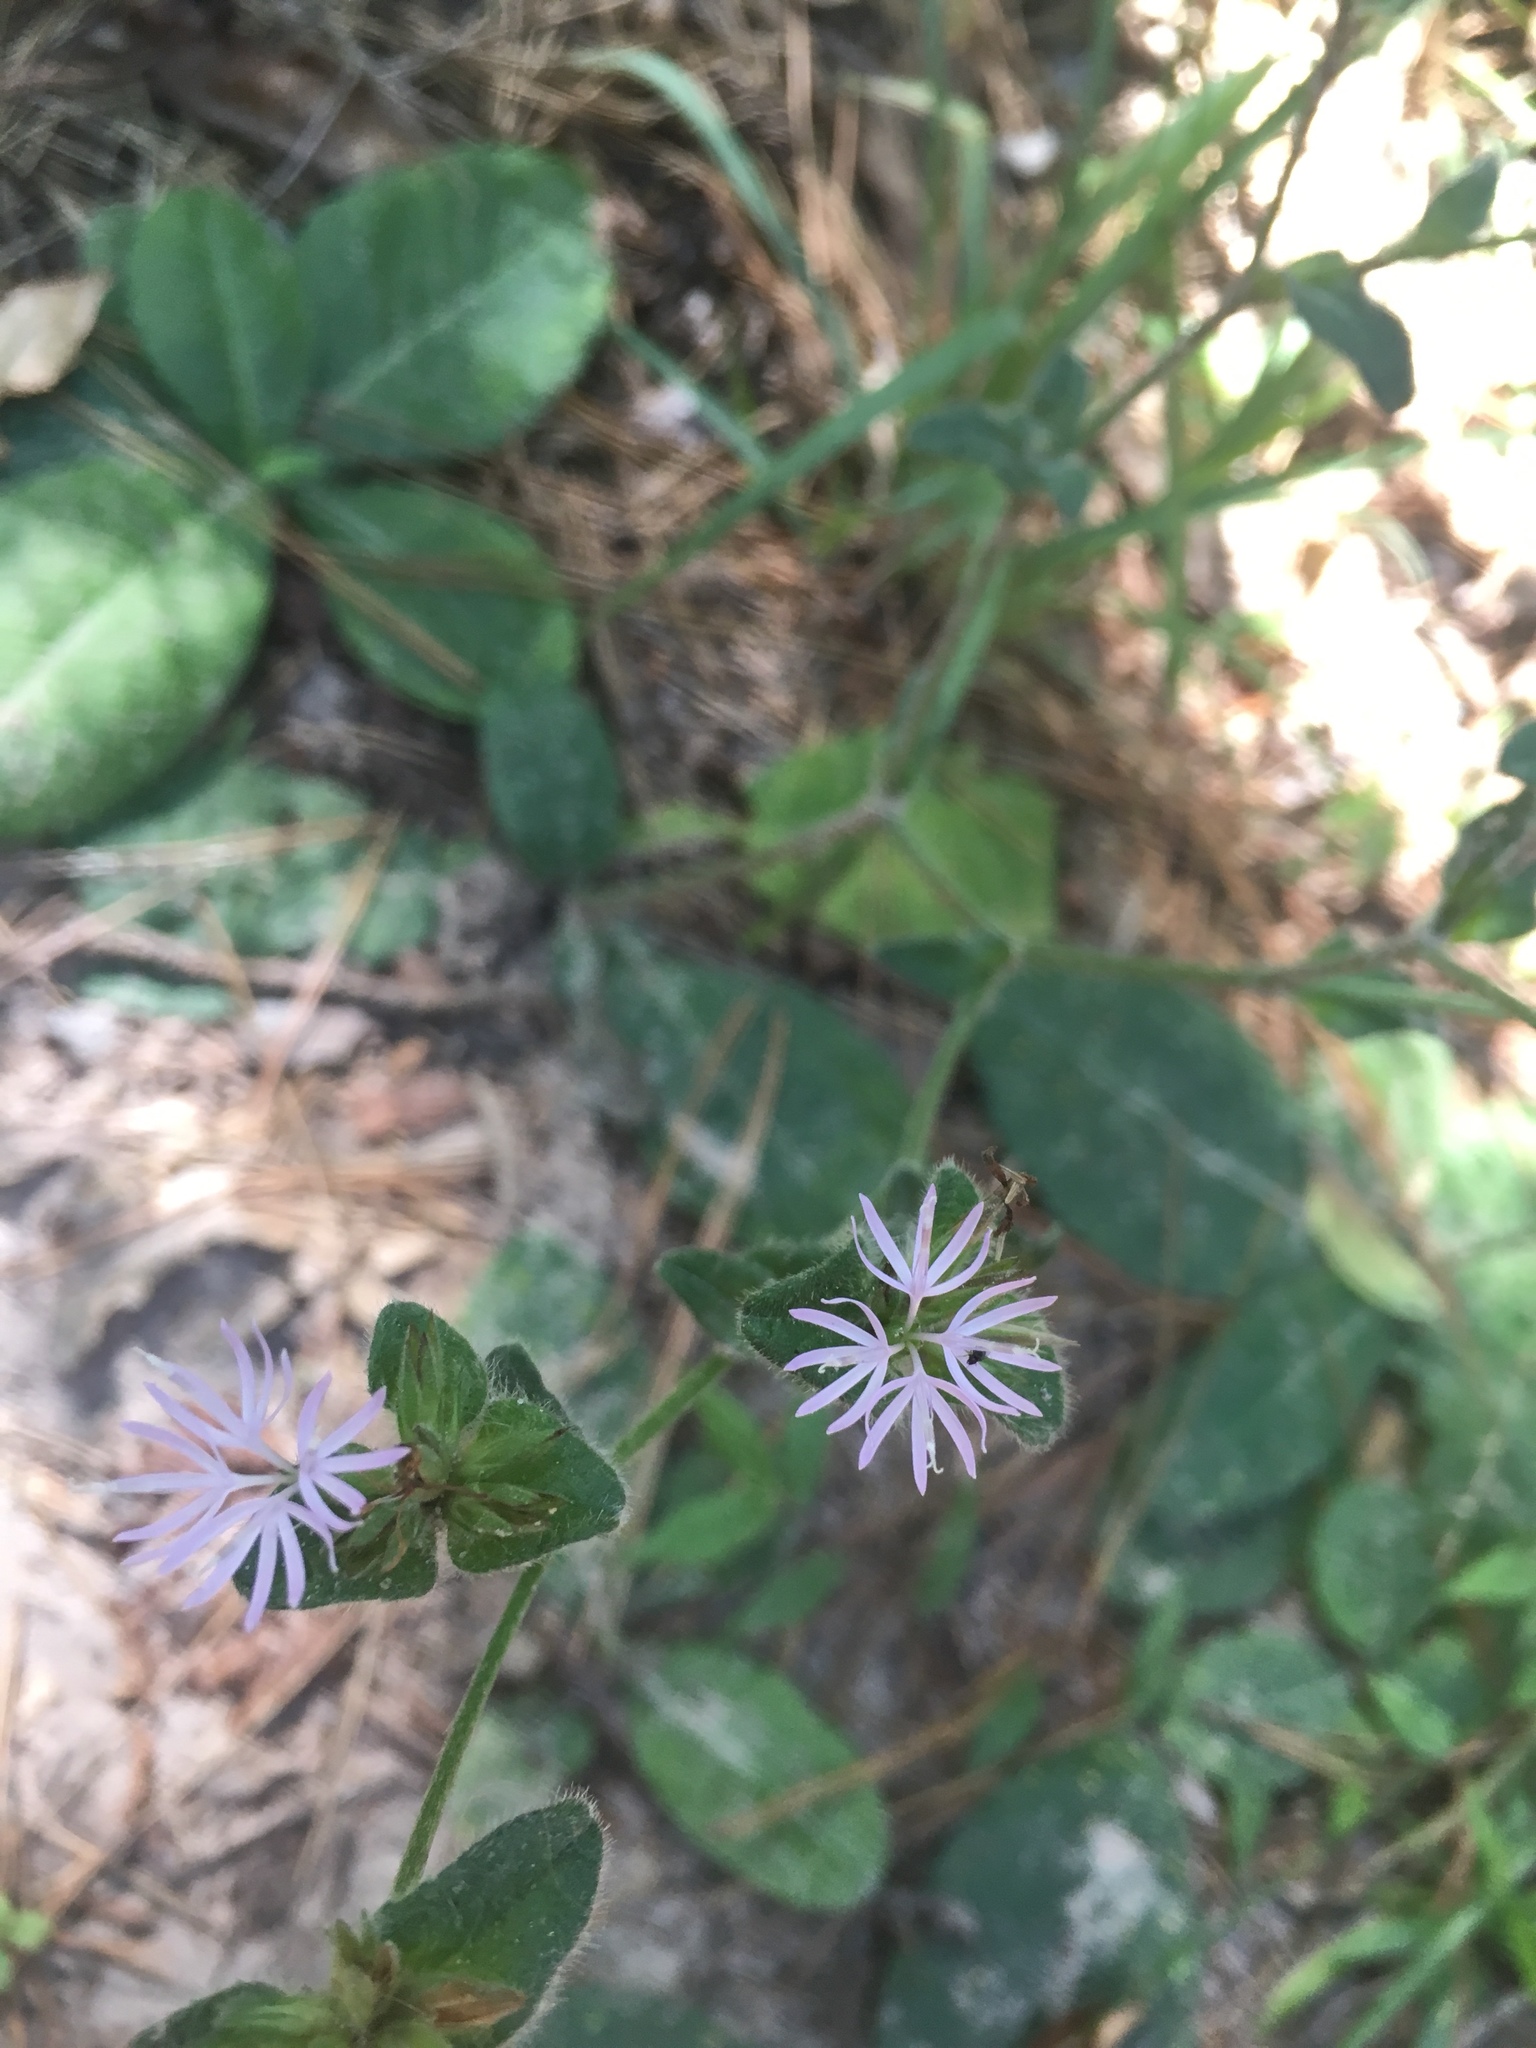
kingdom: Plantae
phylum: Tracheophyta
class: Magnoliopsida
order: Asterales
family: Asteraceae
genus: Elephantopus
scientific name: Elephantopus carolinianus
